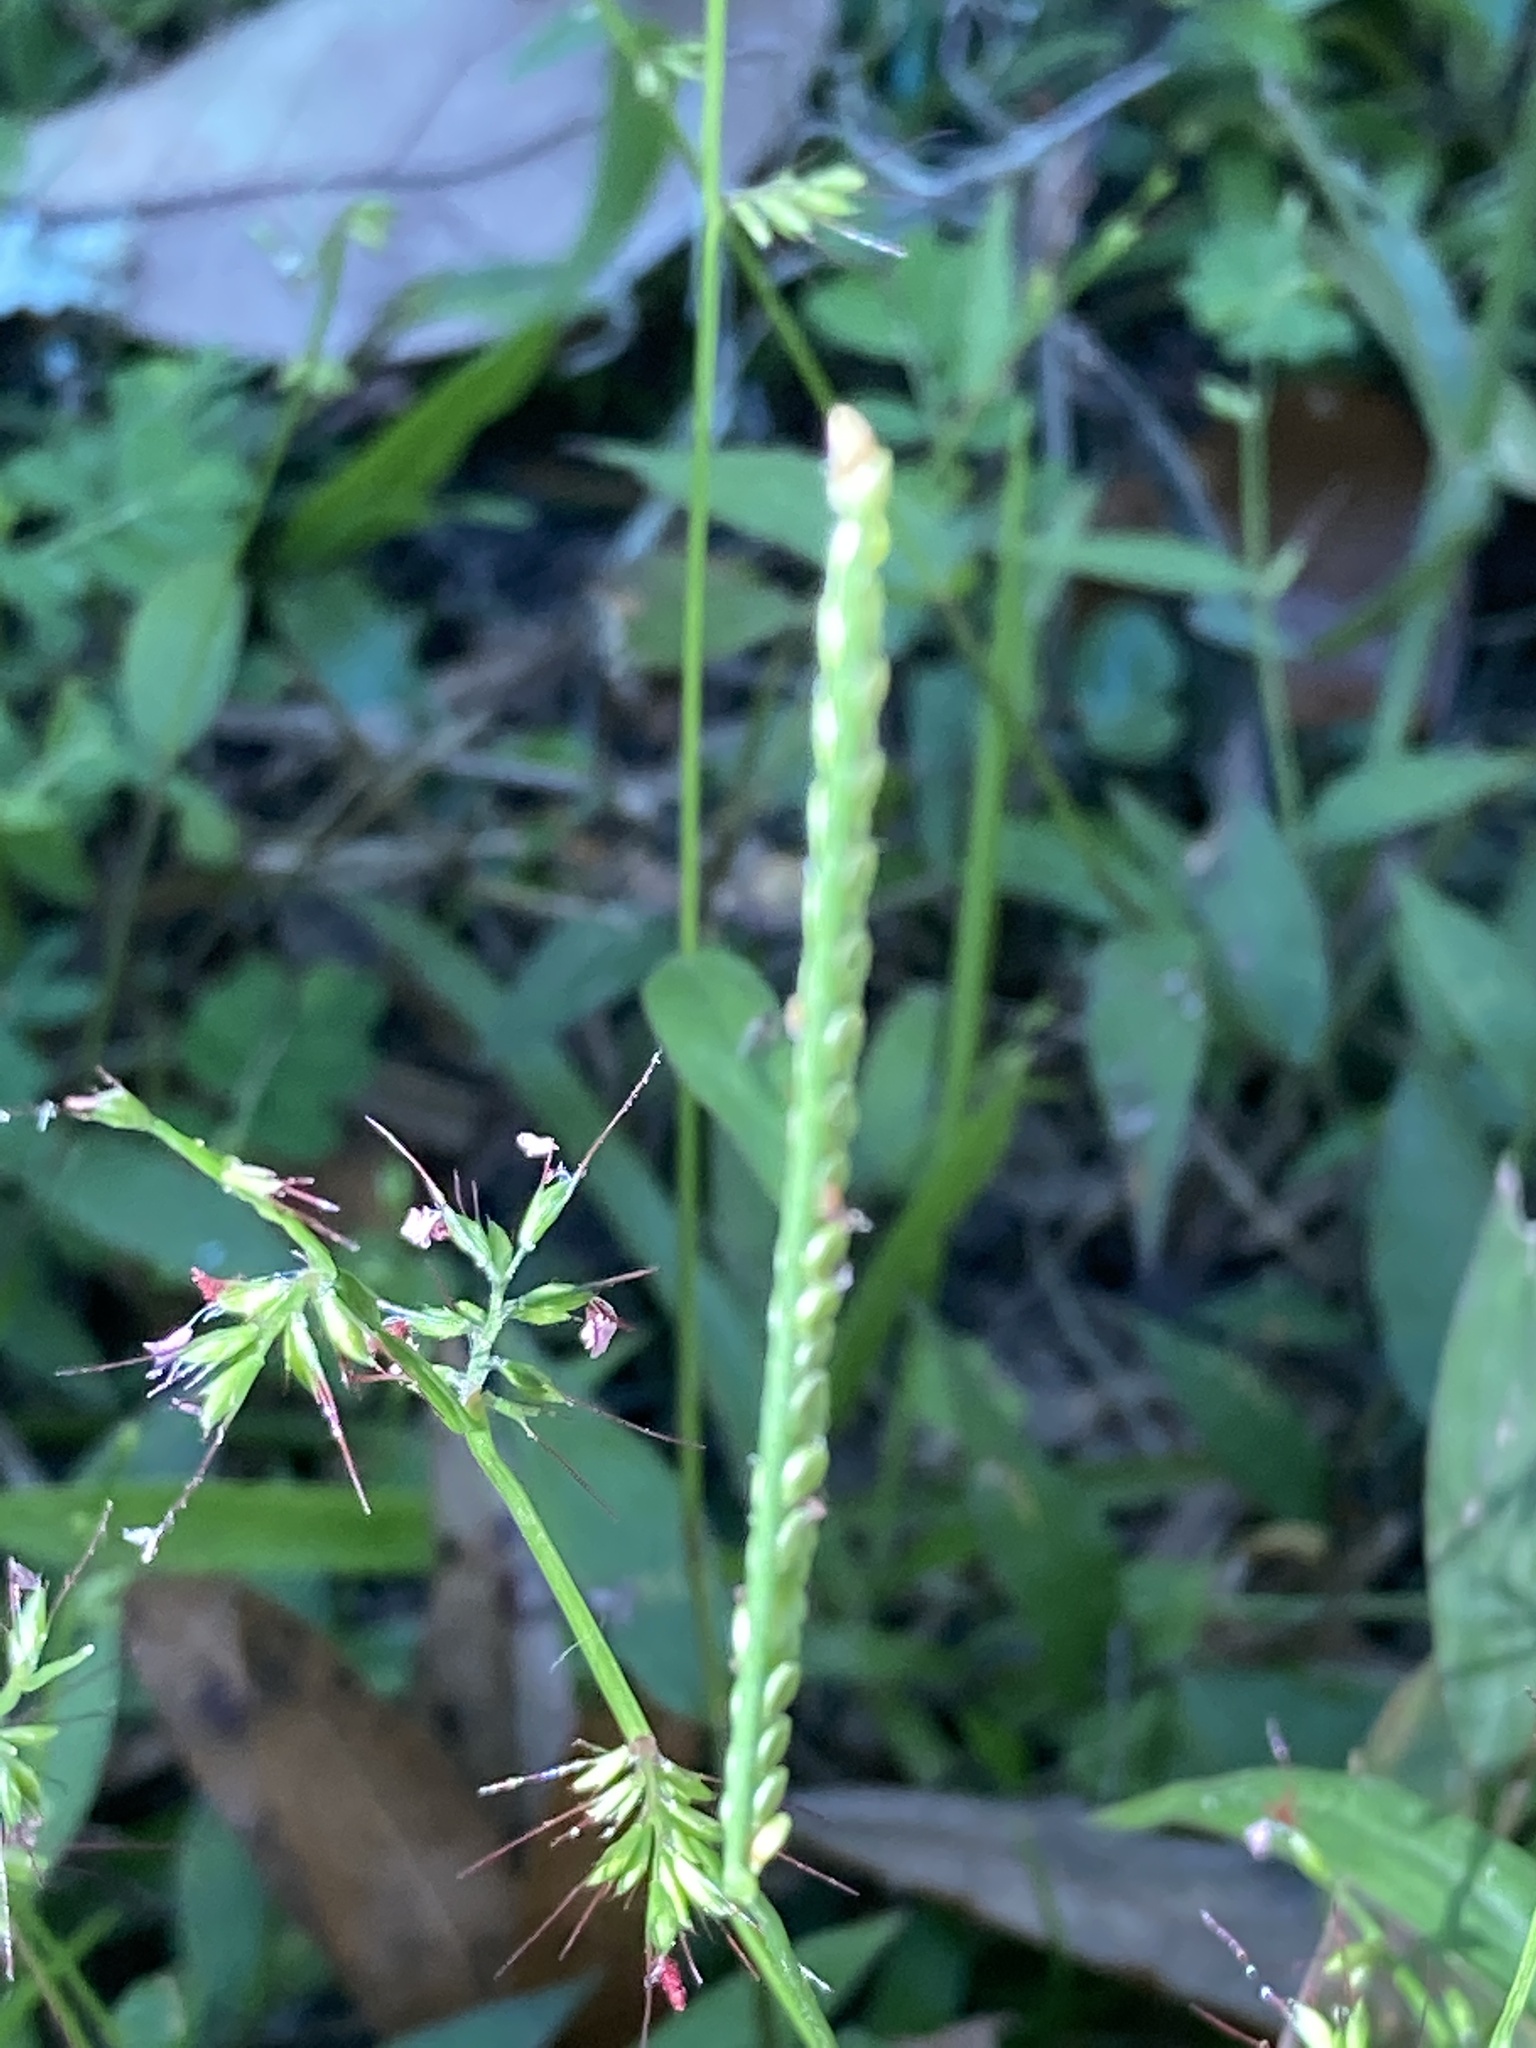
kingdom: Plantae
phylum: Tracheophyta
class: Liliopsida
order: Poales
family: Poaceae
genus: Oplismenus
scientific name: Oplismenus hirtellus
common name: Basketgrass
